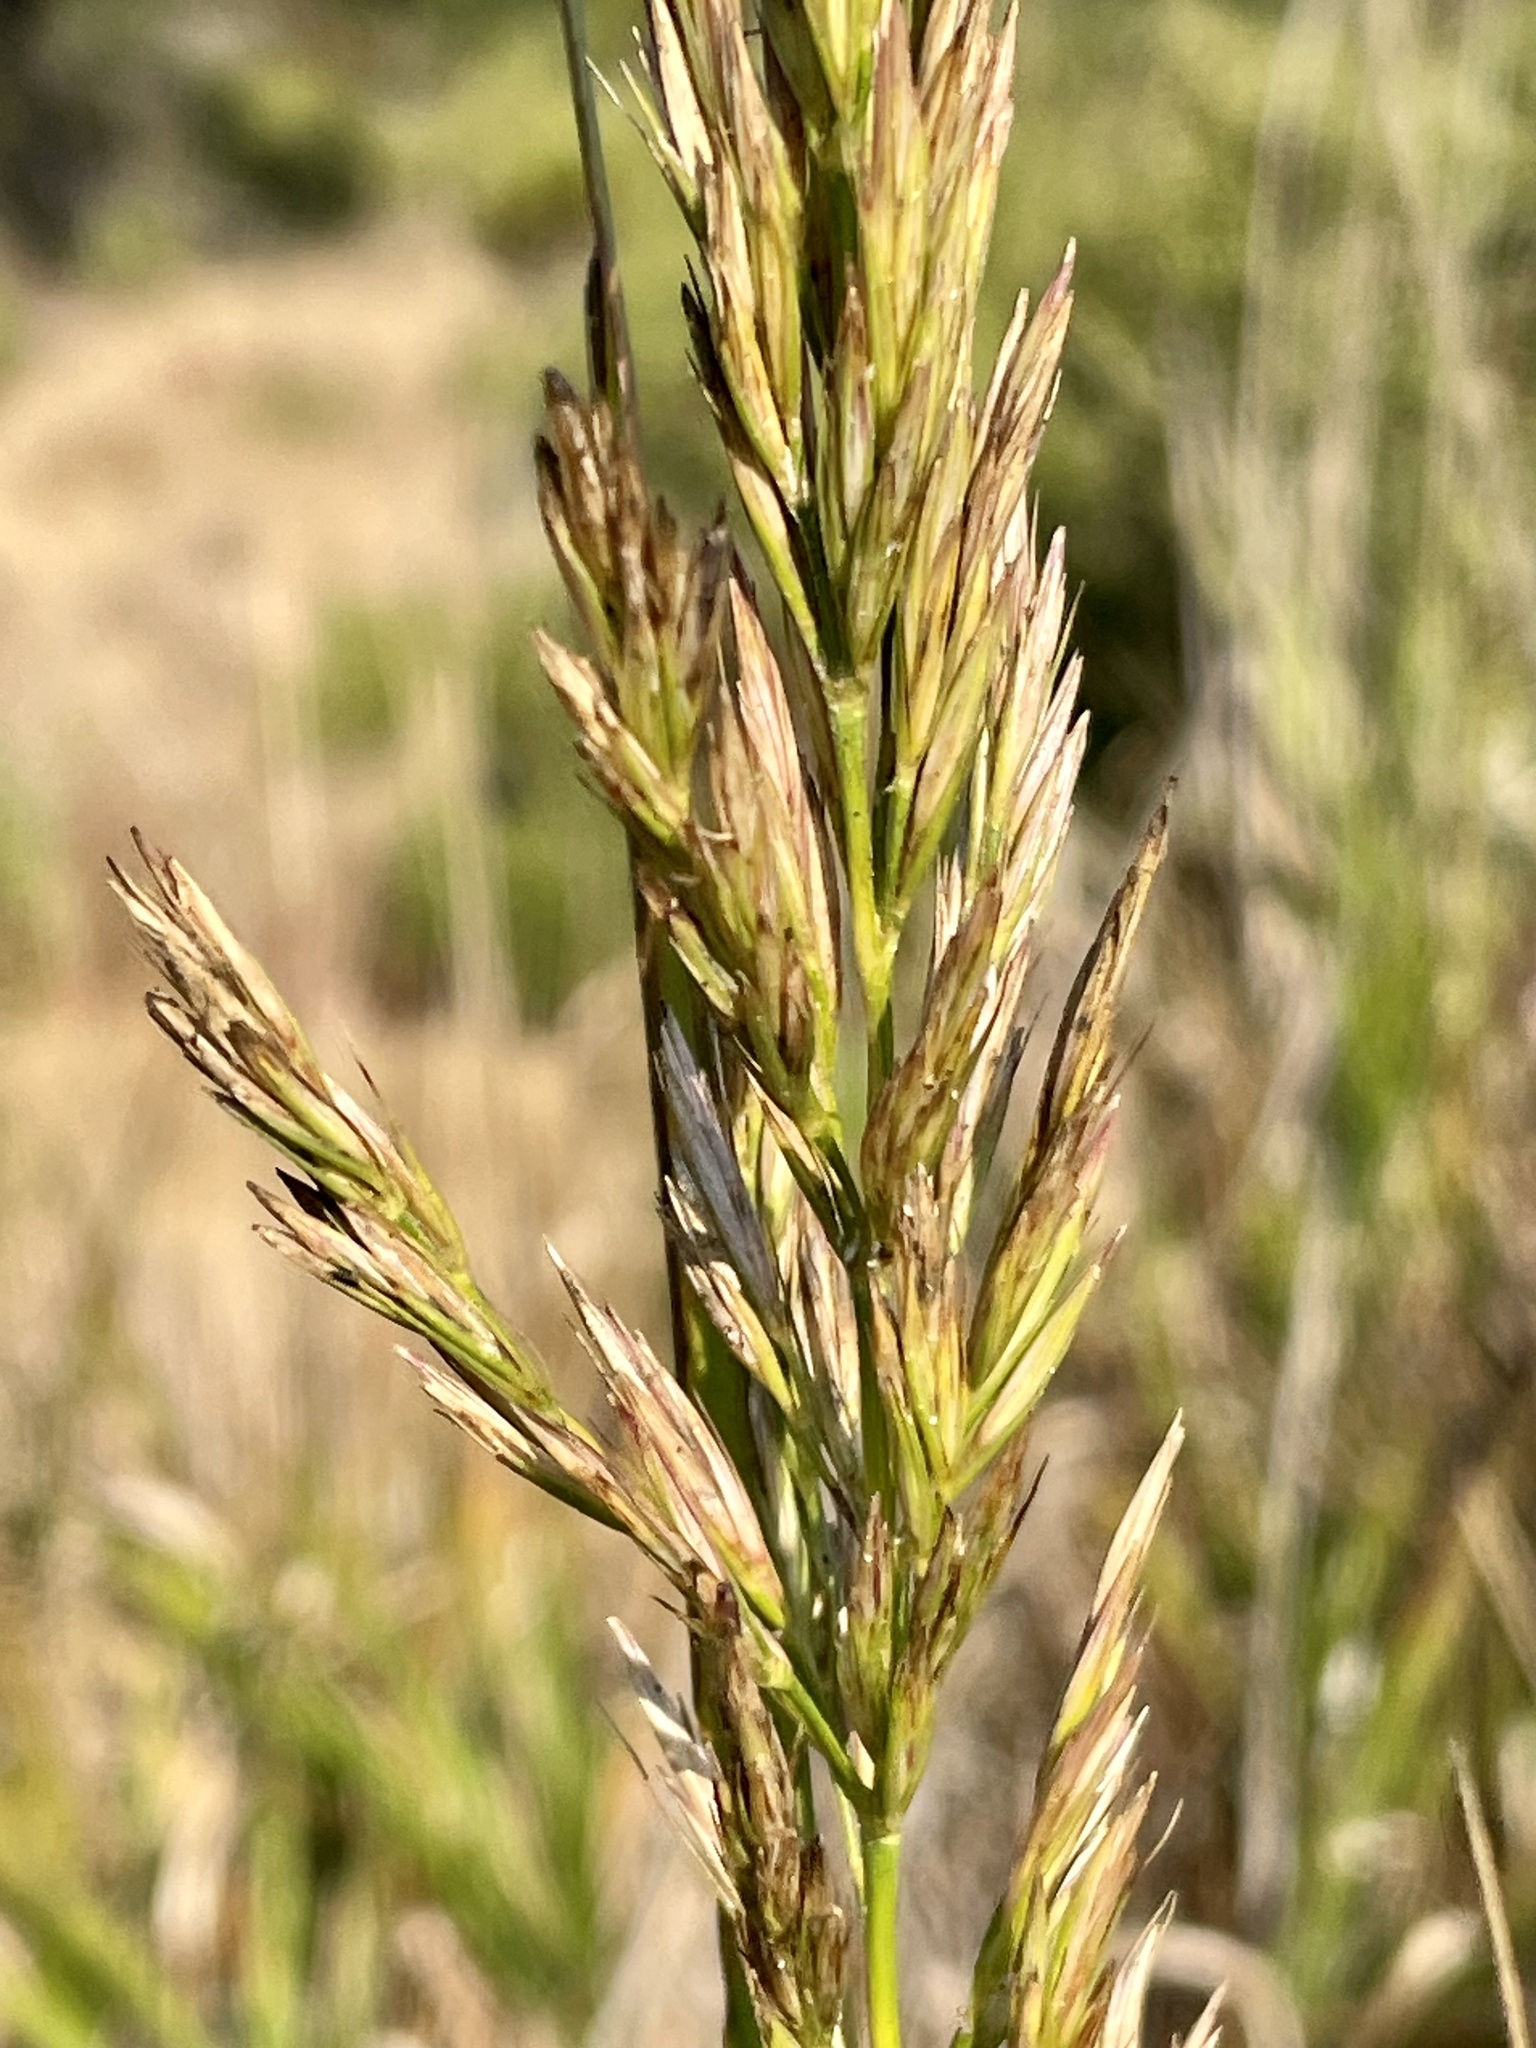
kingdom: Plantae
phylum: Tracheophyta
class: Liliopsida
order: Poales
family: Poaceae
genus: Leymus
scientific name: Leymus condensatus
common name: Giant wild rye
